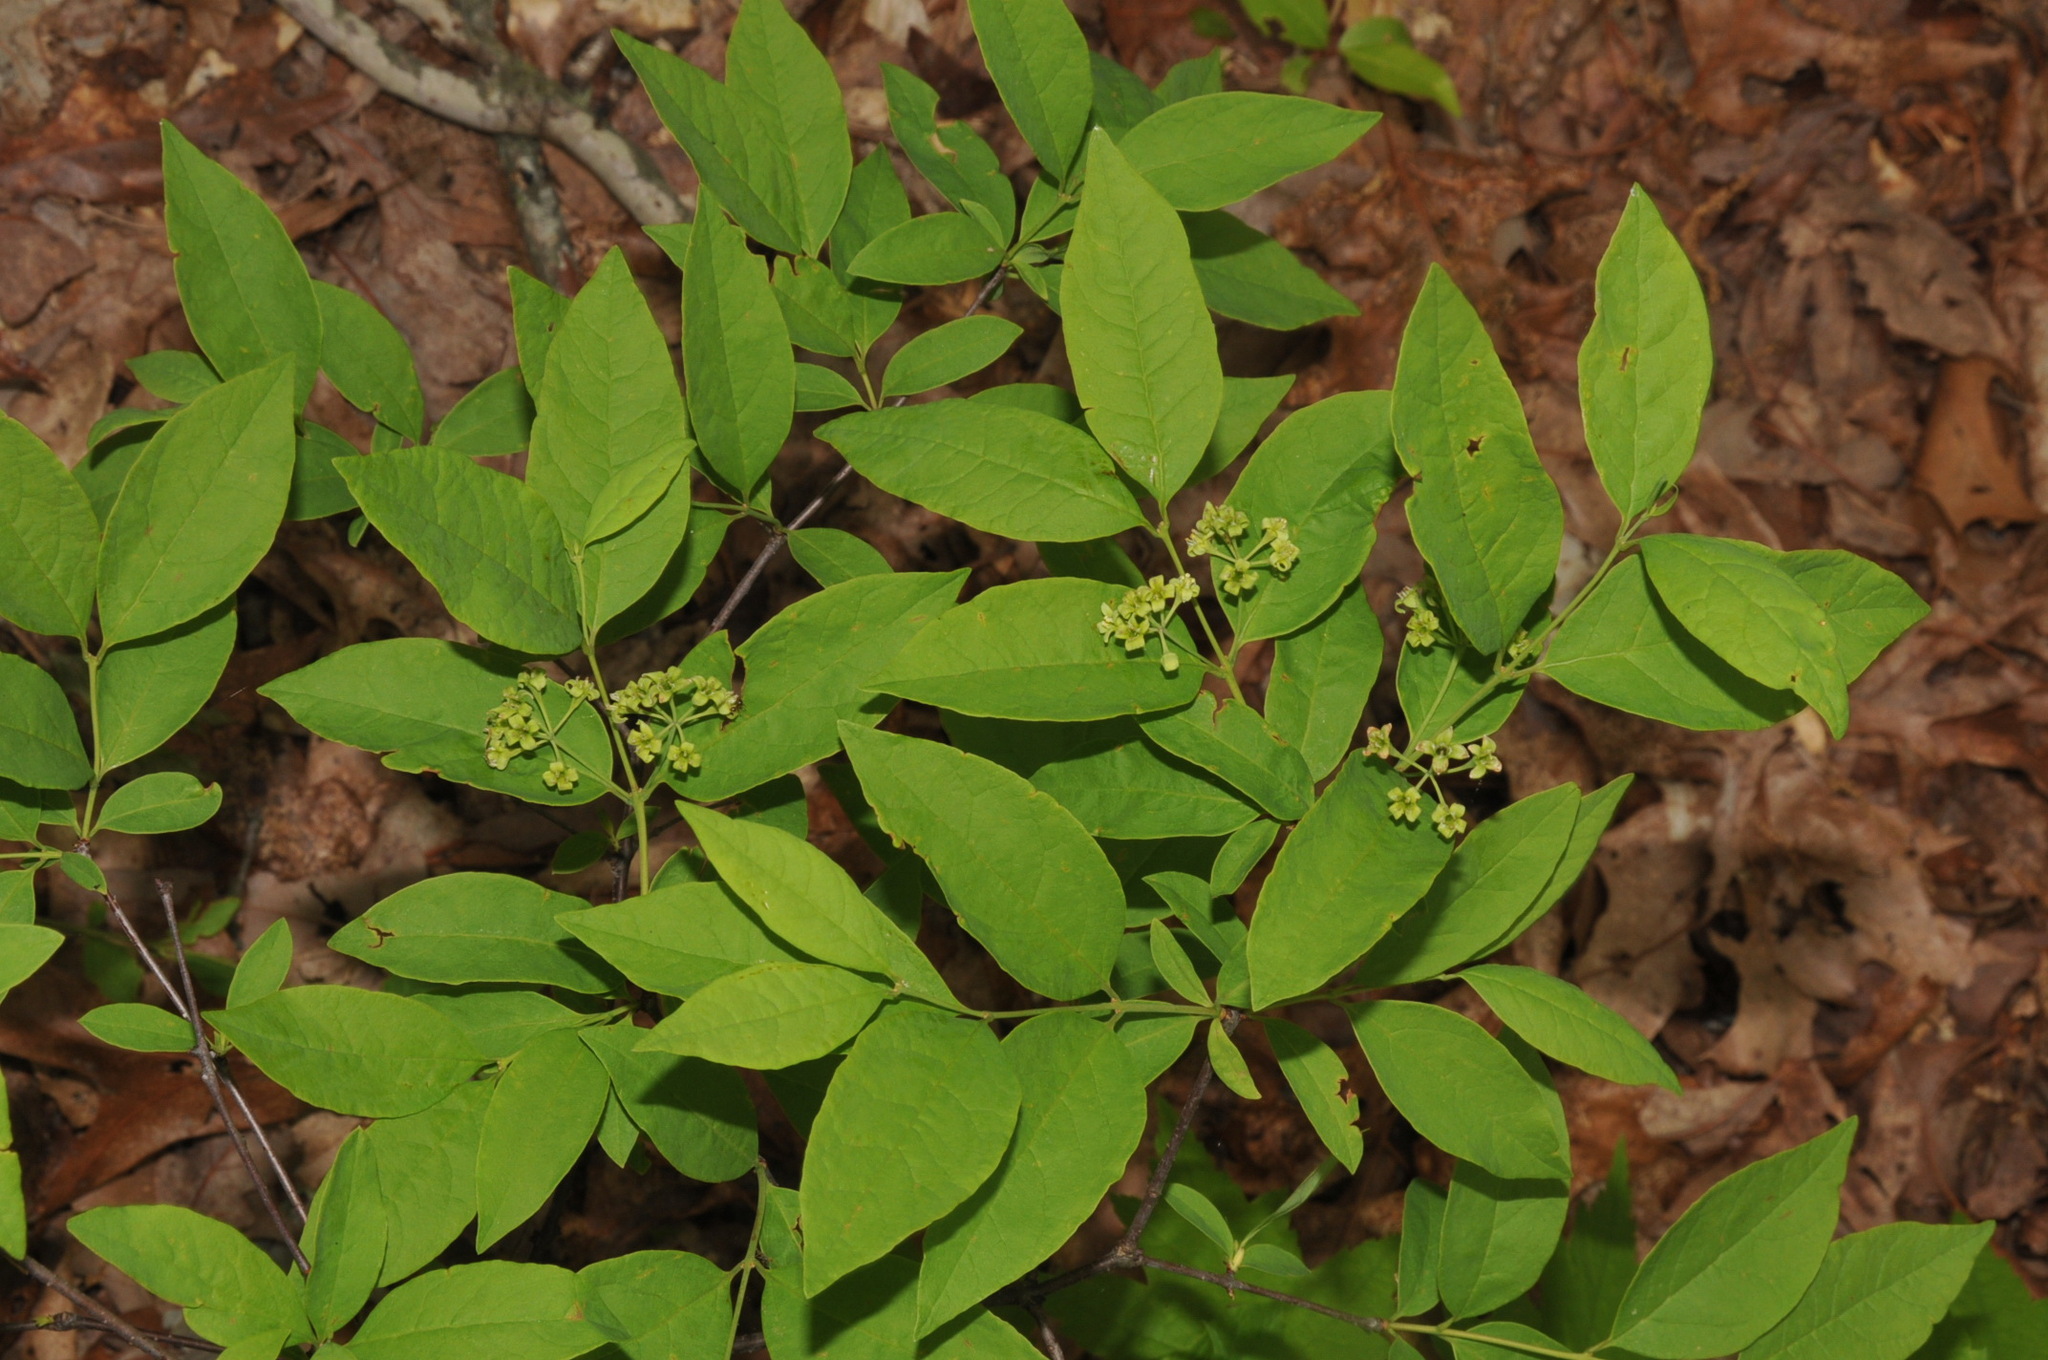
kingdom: Plantae
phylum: Tracheophyta
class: Magnoliopsida
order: Santalales
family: Santalaceae
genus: Nestronia
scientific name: Nestronia umbellula
